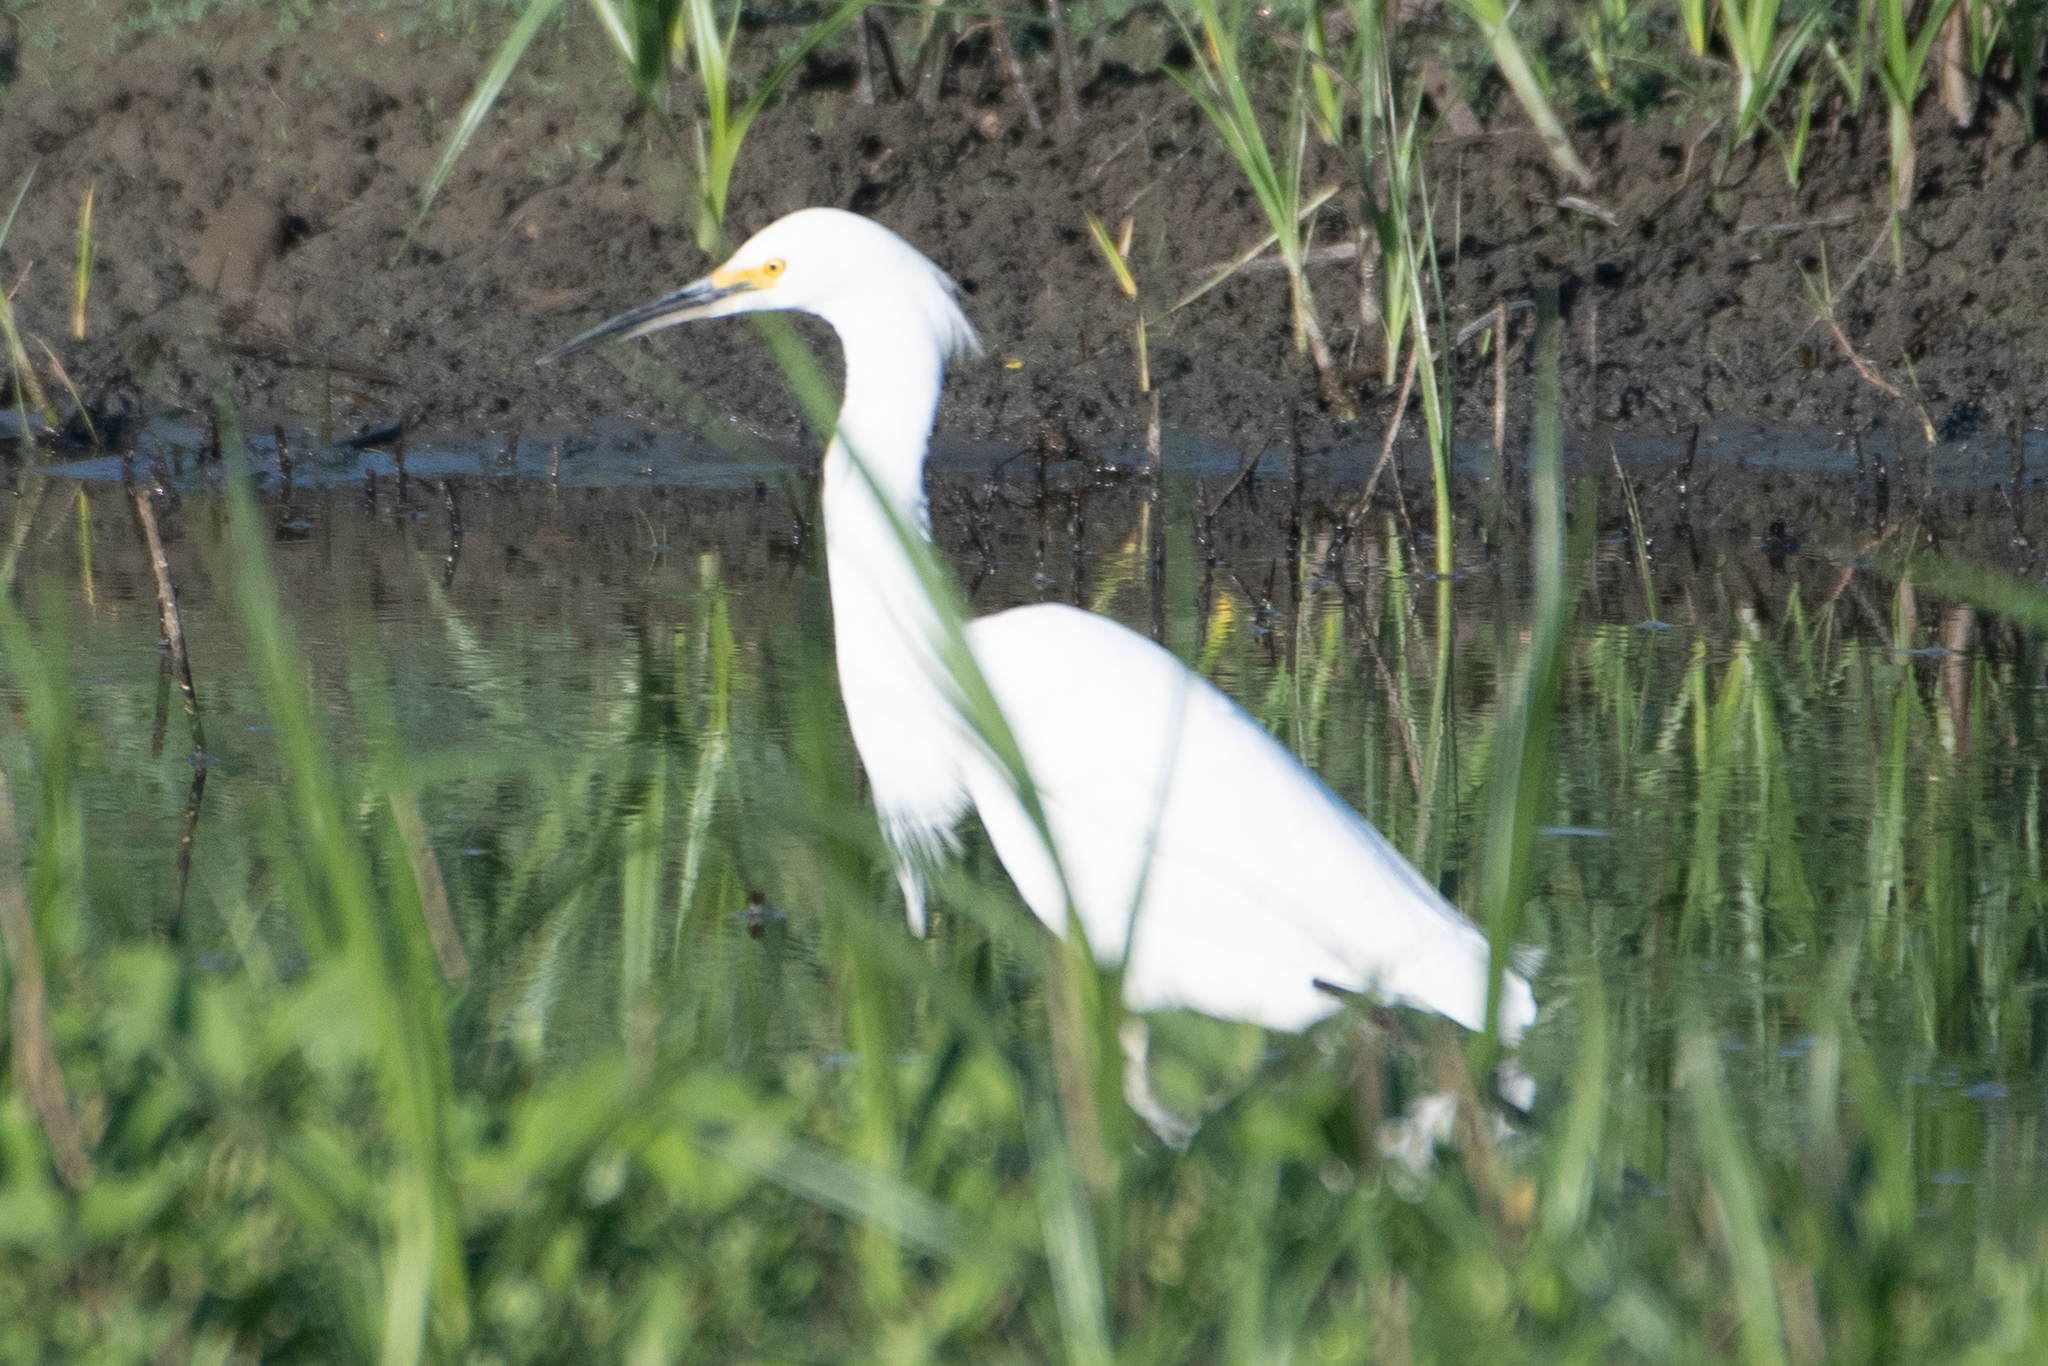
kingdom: Animalia
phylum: Chordata
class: Aves
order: Pelecaniformes
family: Ardeidae
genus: Egretta
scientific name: Egretta thula
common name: Snowy egret
